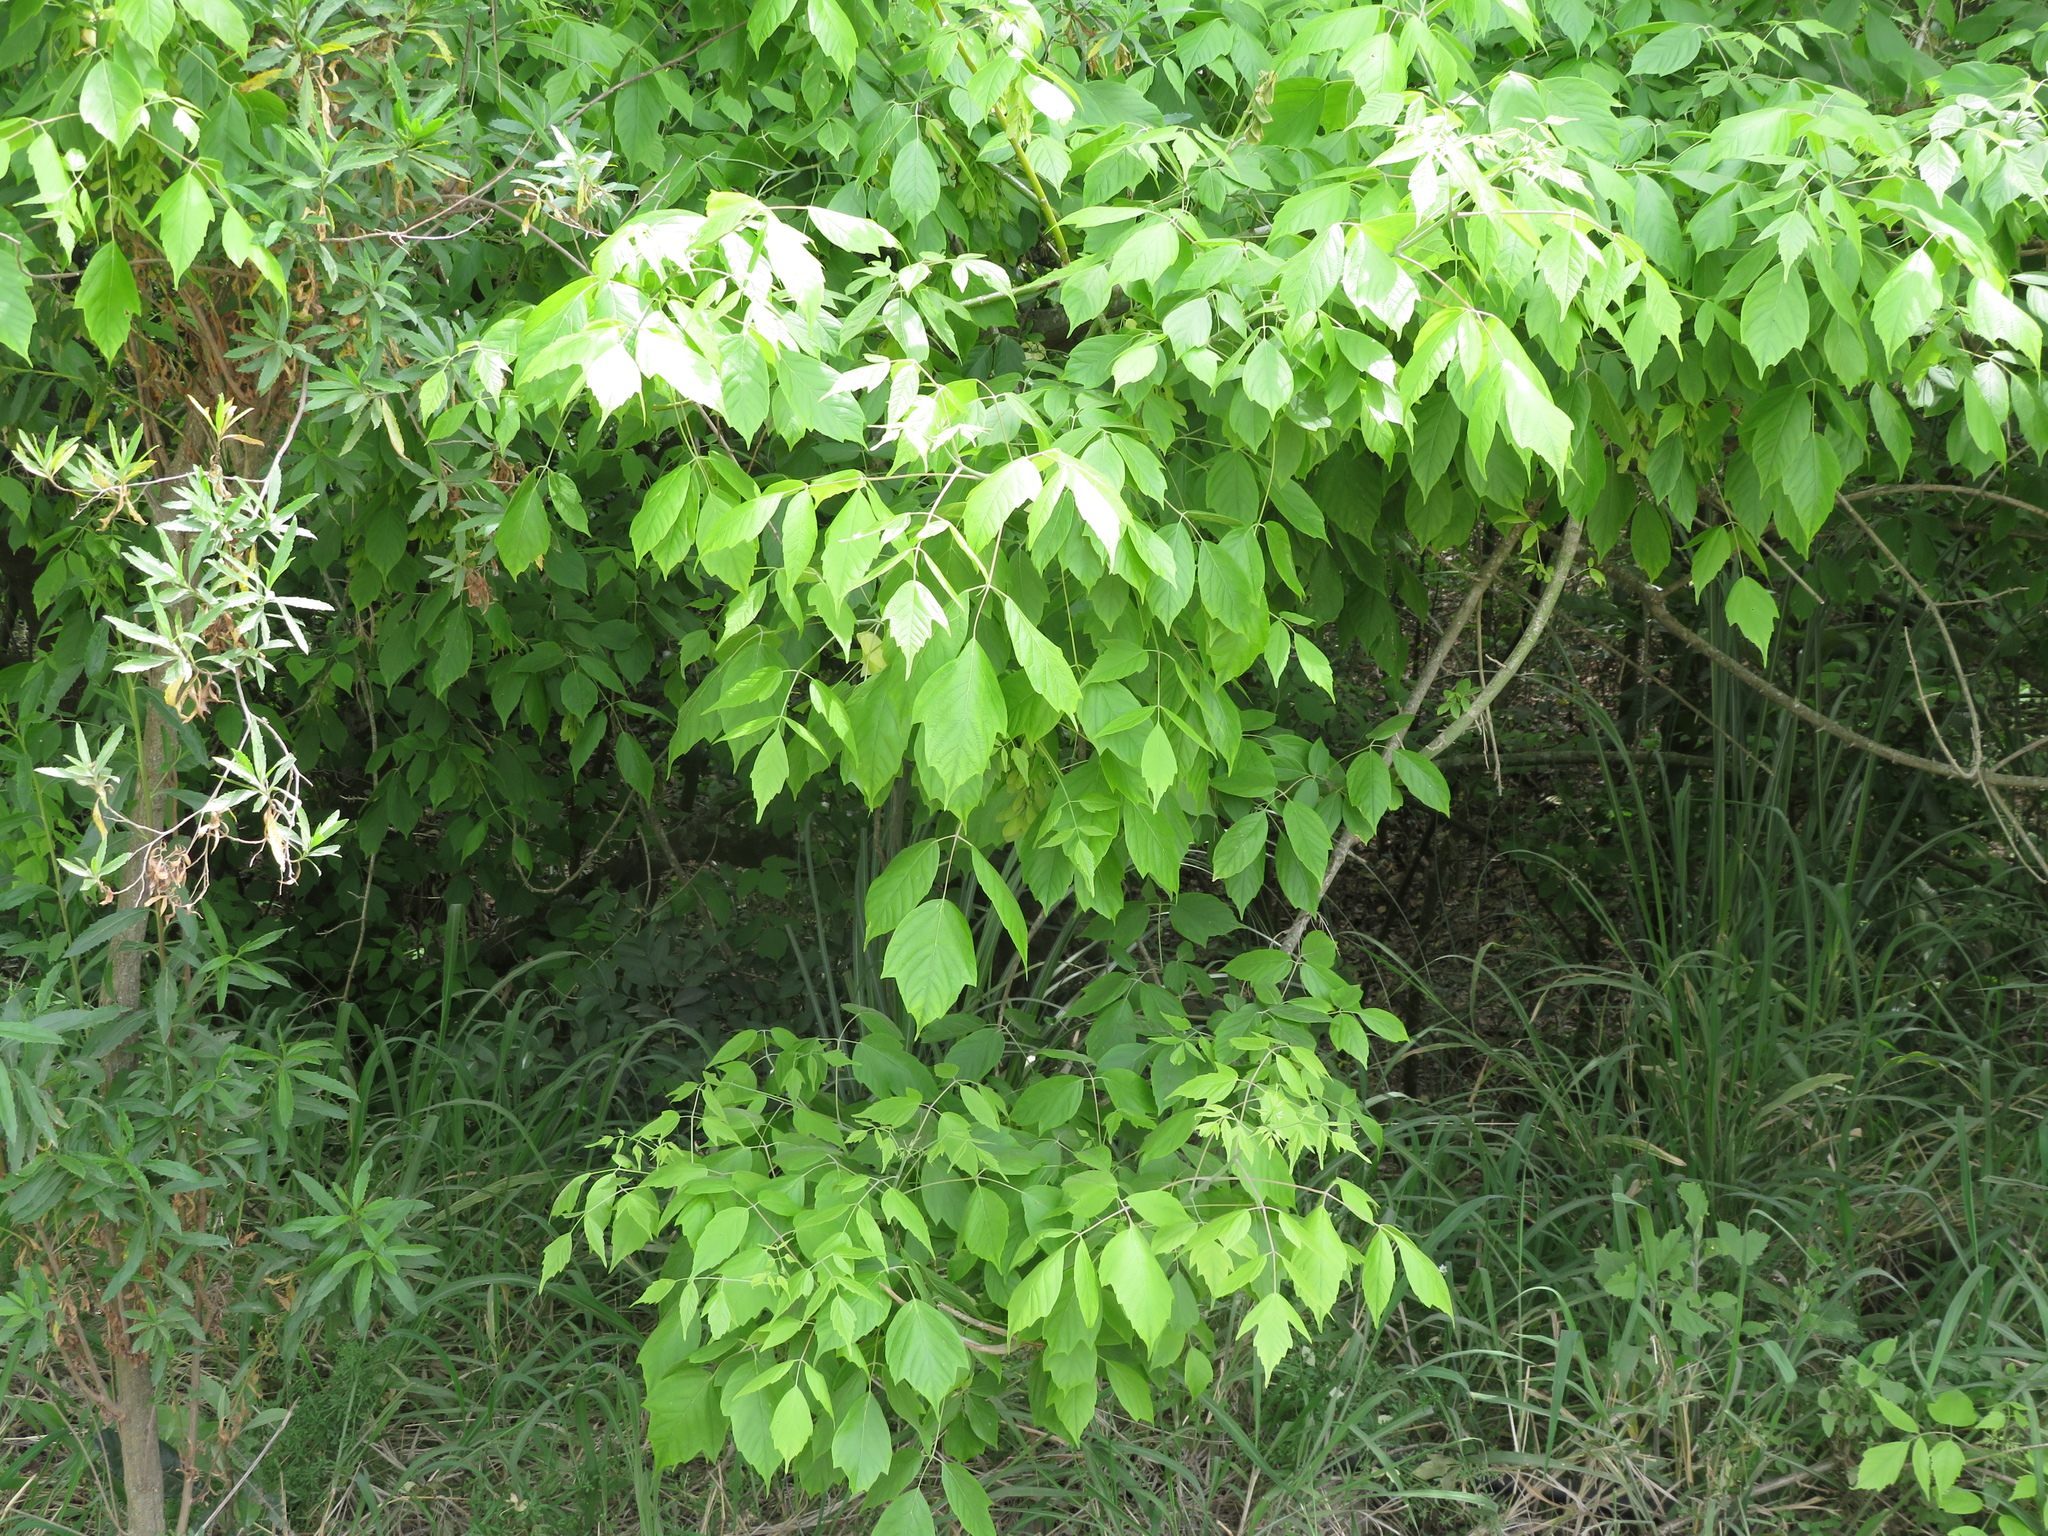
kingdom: Plantae
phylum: Tracheophyta
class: Magnoliopsida
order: Sapindales
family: Sapindaceae
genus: Acer
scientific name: Acer negundo
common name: Ashleaf maple
